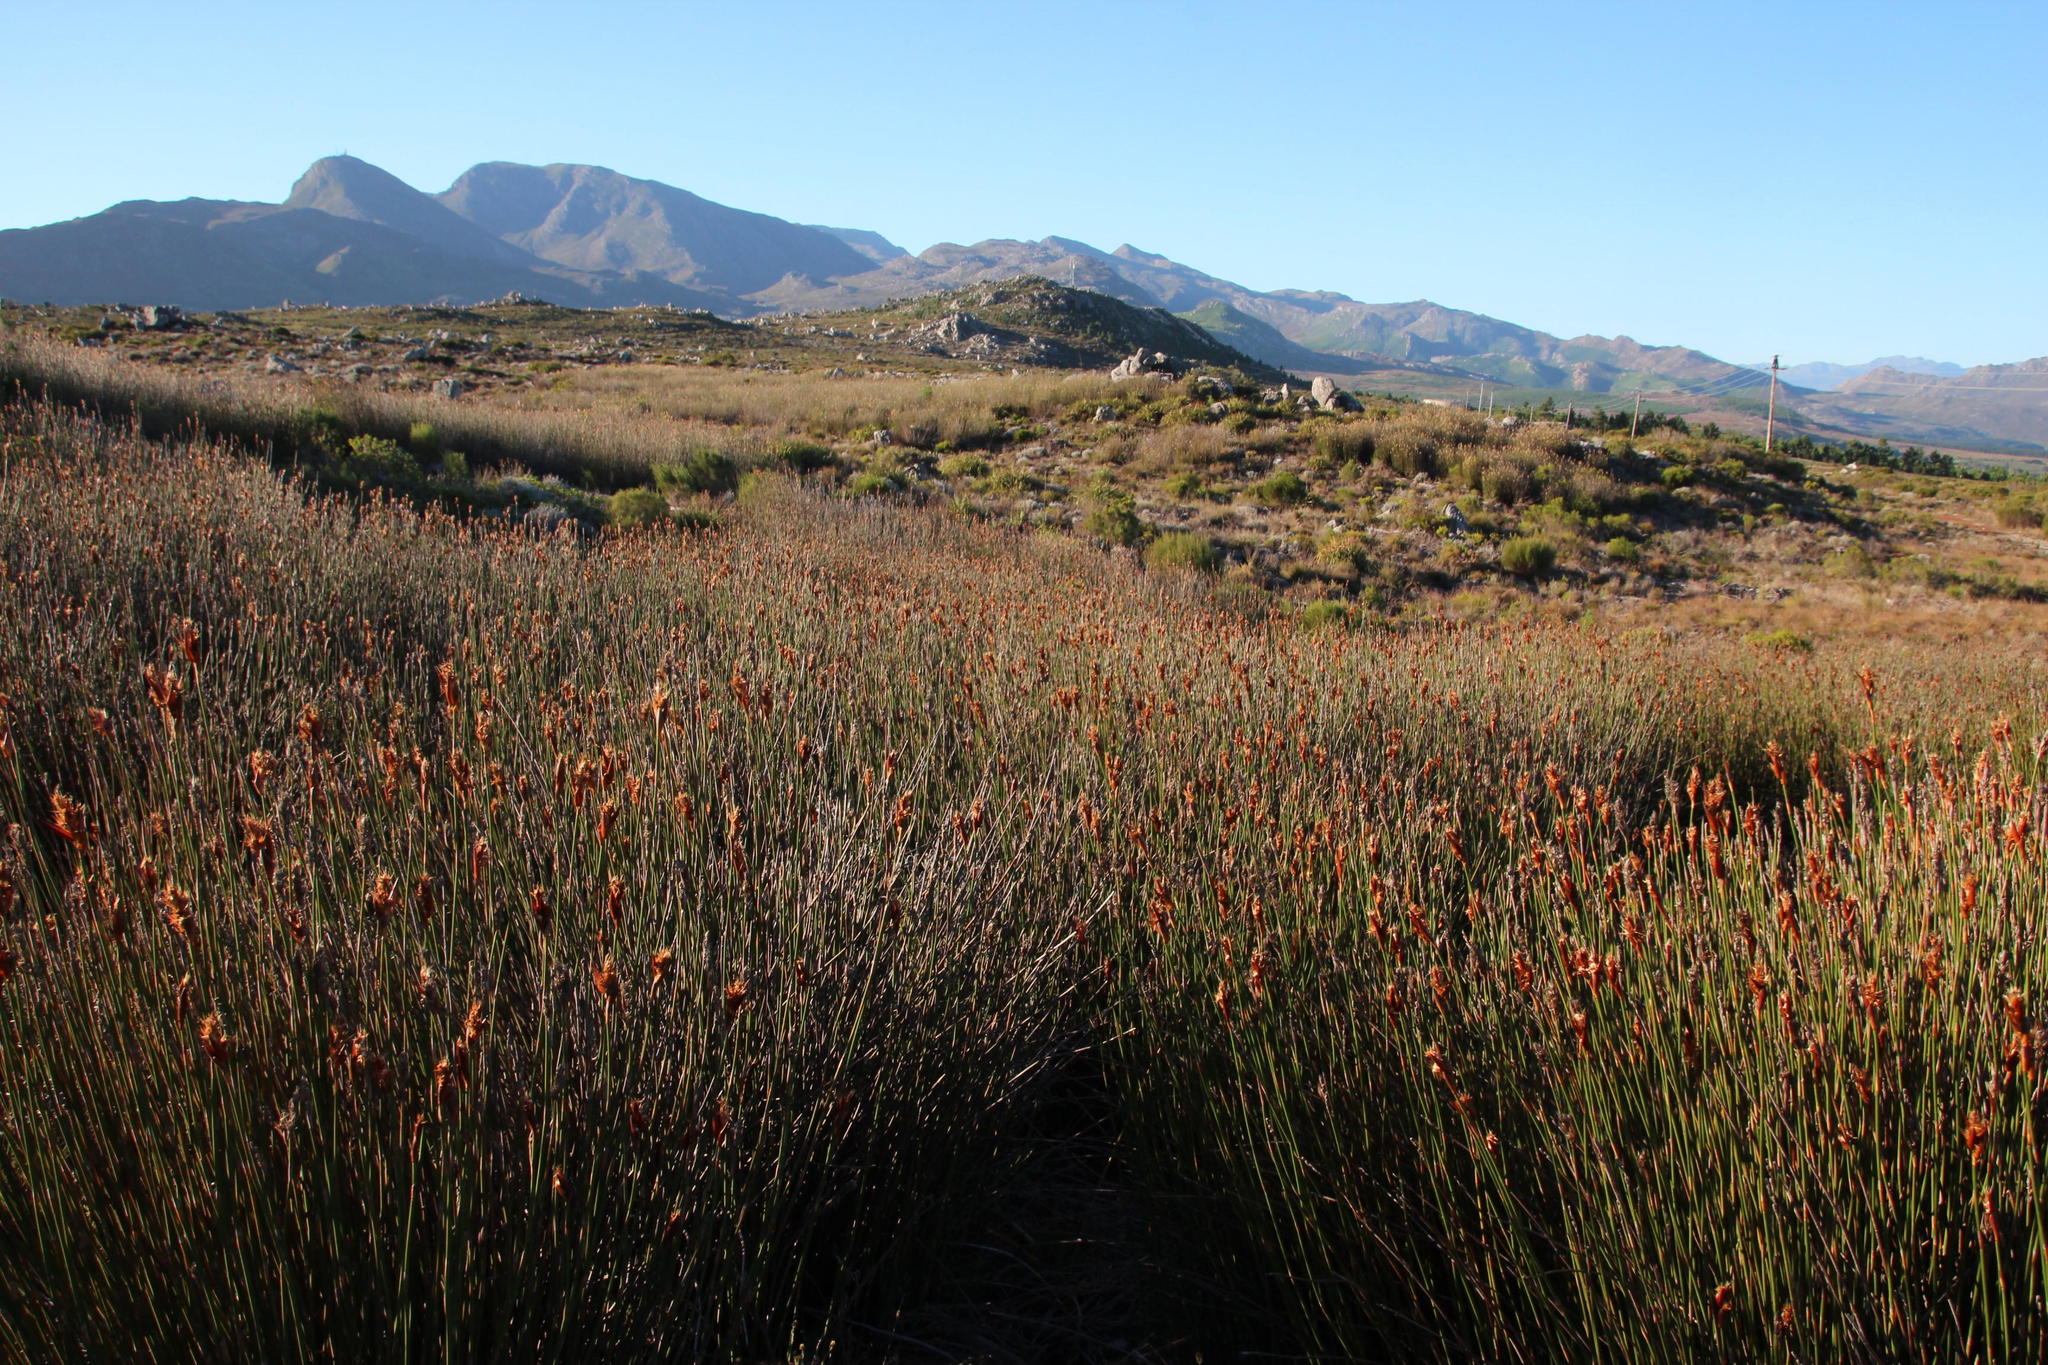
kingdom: Plantae
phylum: Tracheophyta
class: Liliopsida
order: Poales
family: Restionaceae
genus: Ceratocaryum
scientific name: Ceratocaryum decipiens
